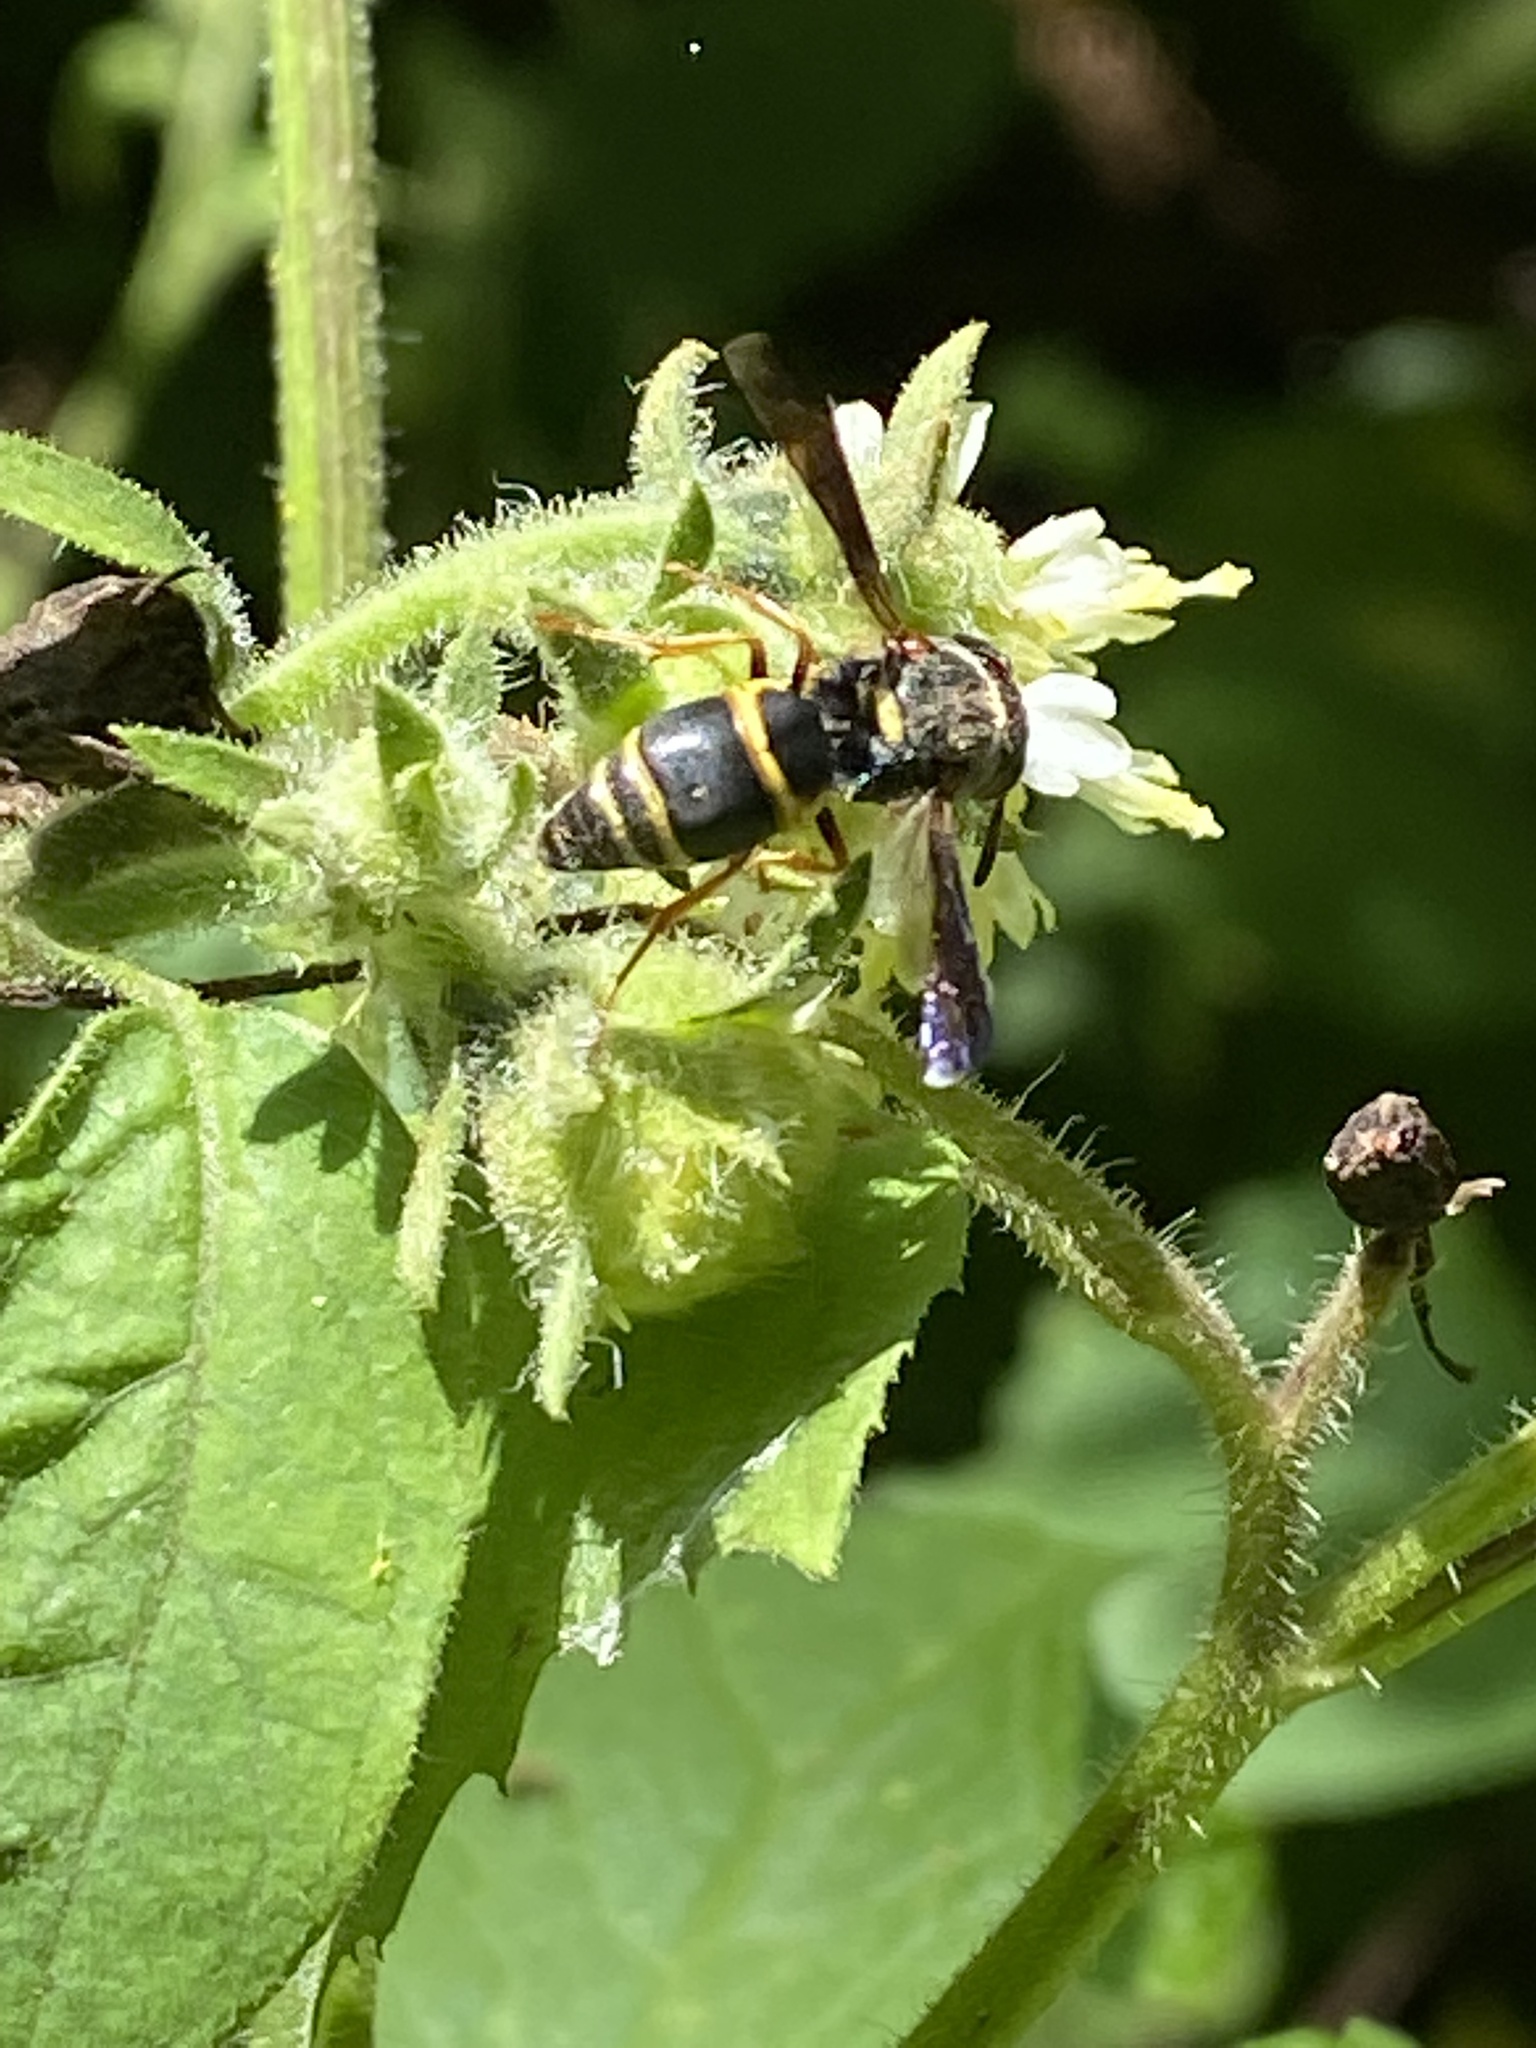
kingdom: Animalia
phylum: Arthropoda
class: Insecta
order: Hymenoptera
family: Eumenidae
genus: Euodynerus
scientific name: Euodynerus hidalgo
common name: Wasp
